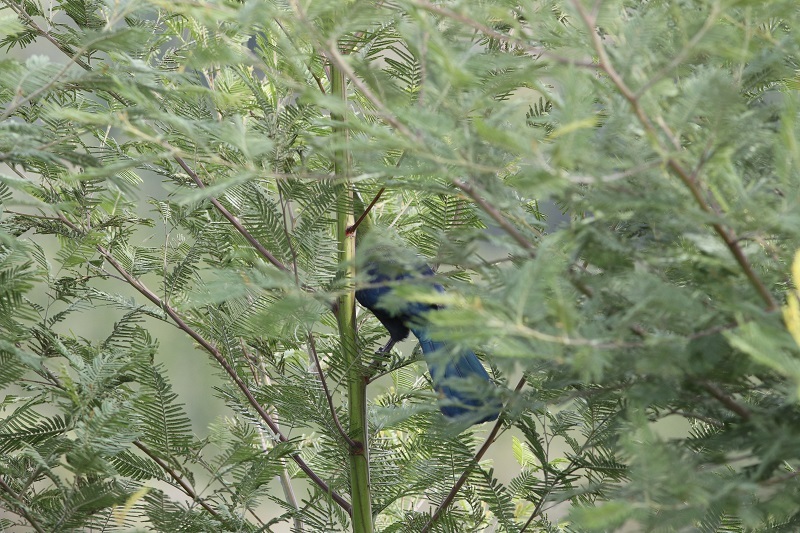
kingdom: Animalia
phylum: Chordata
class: Aves
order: Musophagiformes
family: Musophagidae
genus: Tauraco
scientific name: Tauraco corythaix
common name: Knysna turaco
